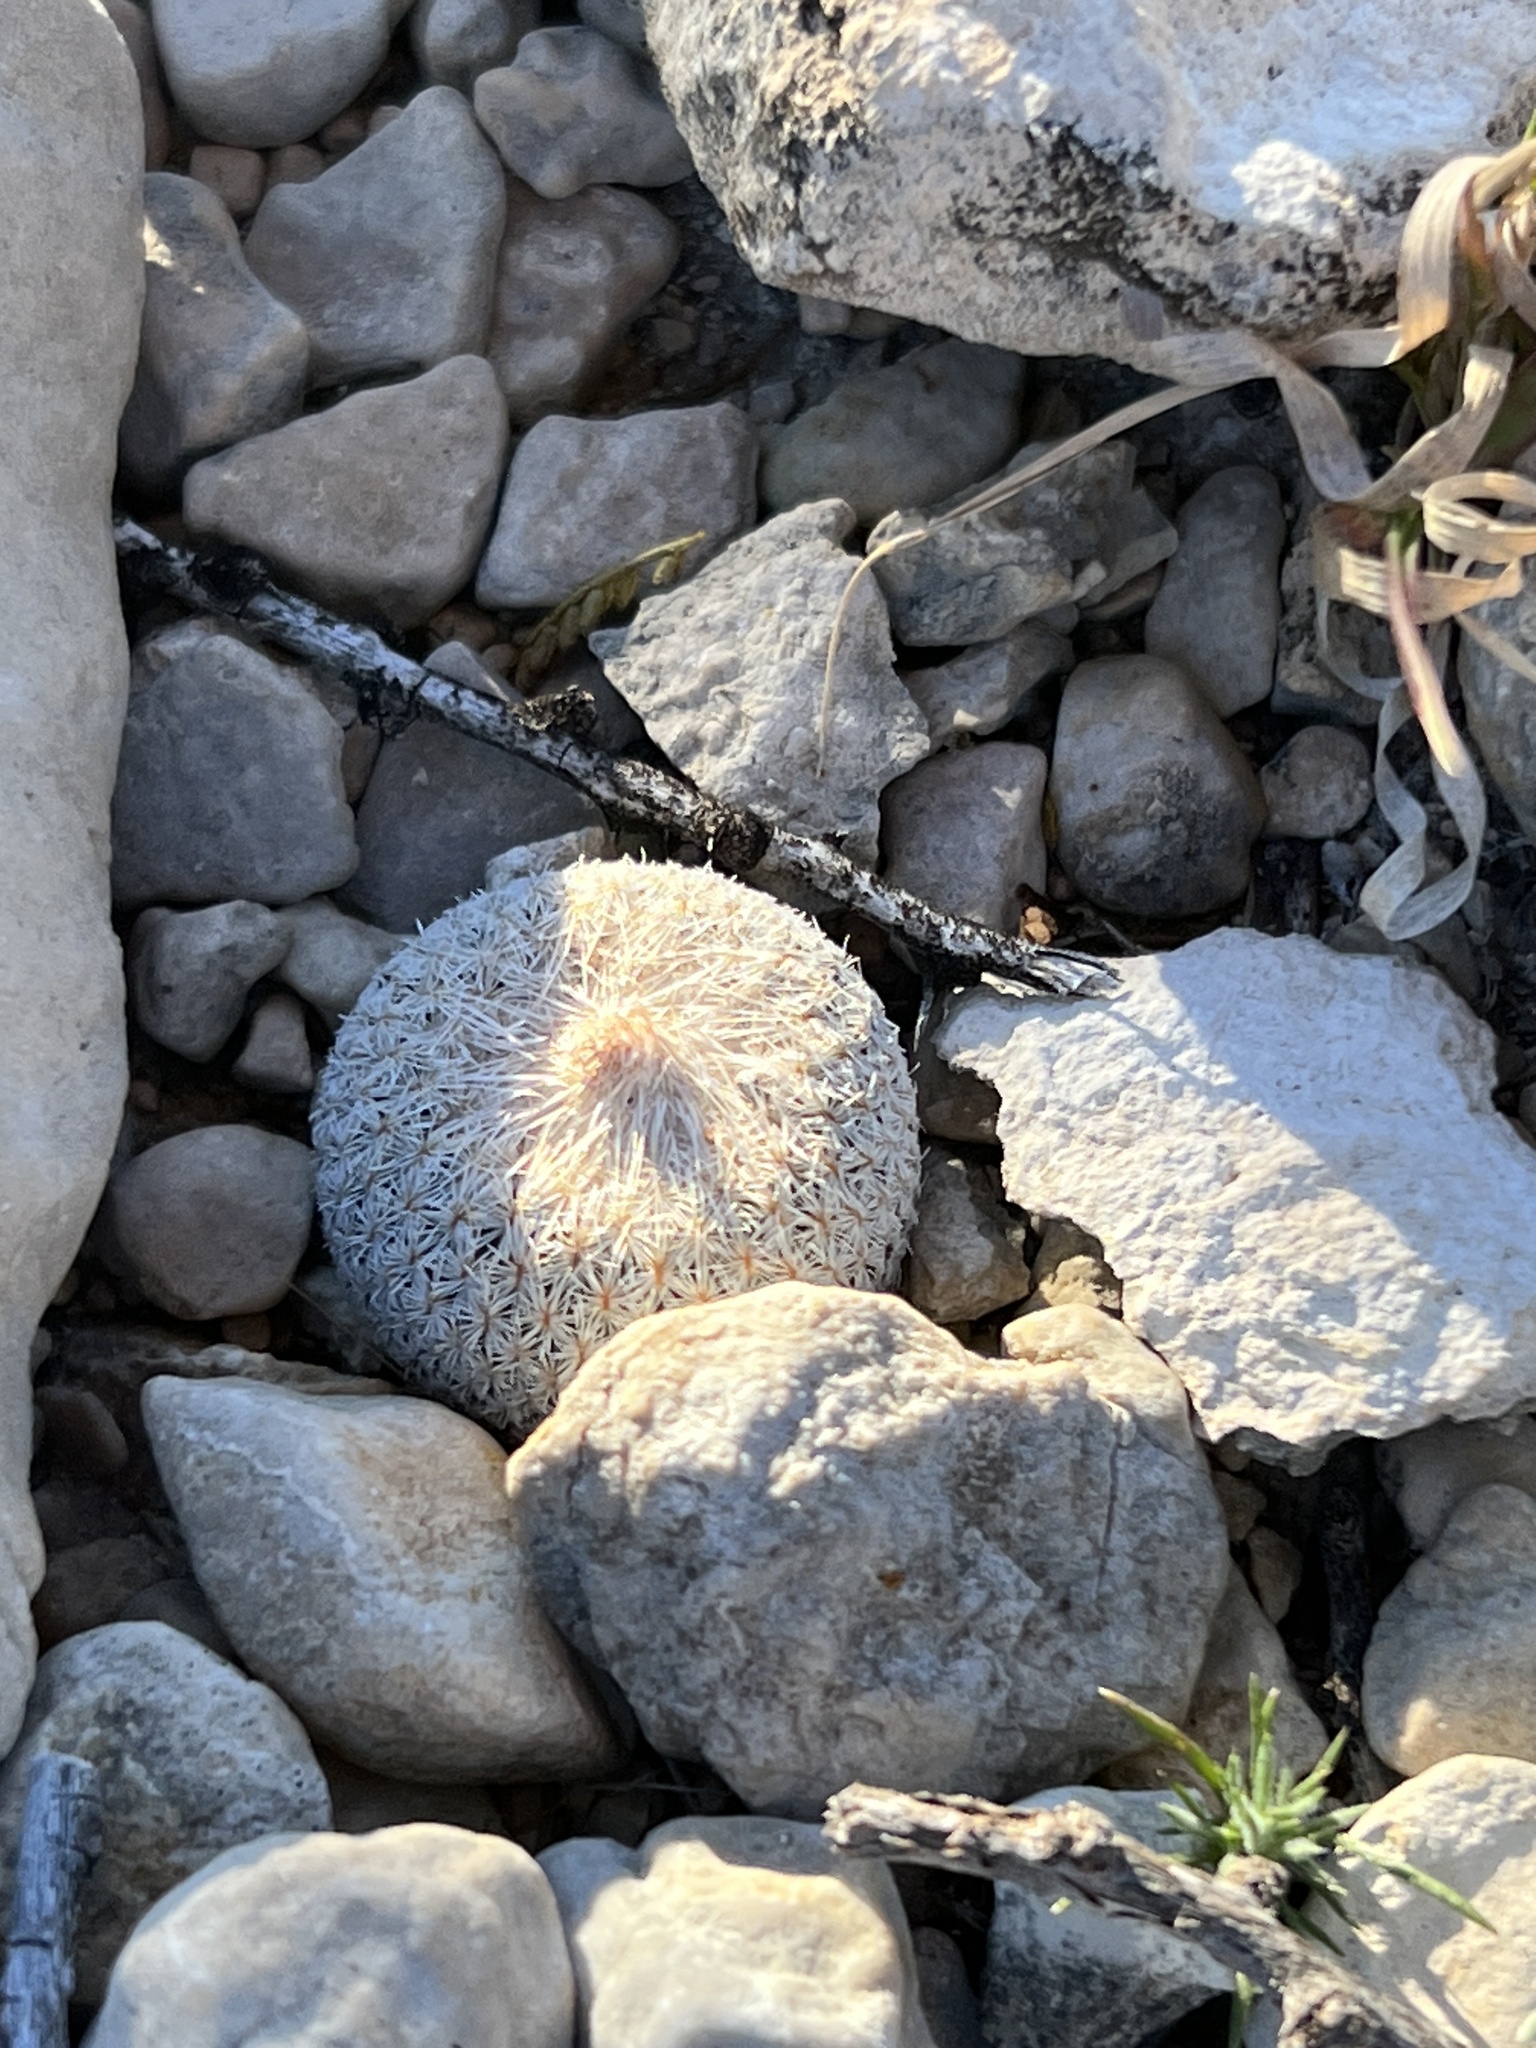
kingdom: Plantae
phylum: Tracheophyta
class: Magnoliopsida
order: Caryophyllales
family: Cactaceae
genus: Epithelantha
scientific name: Epithelantha micromeris
